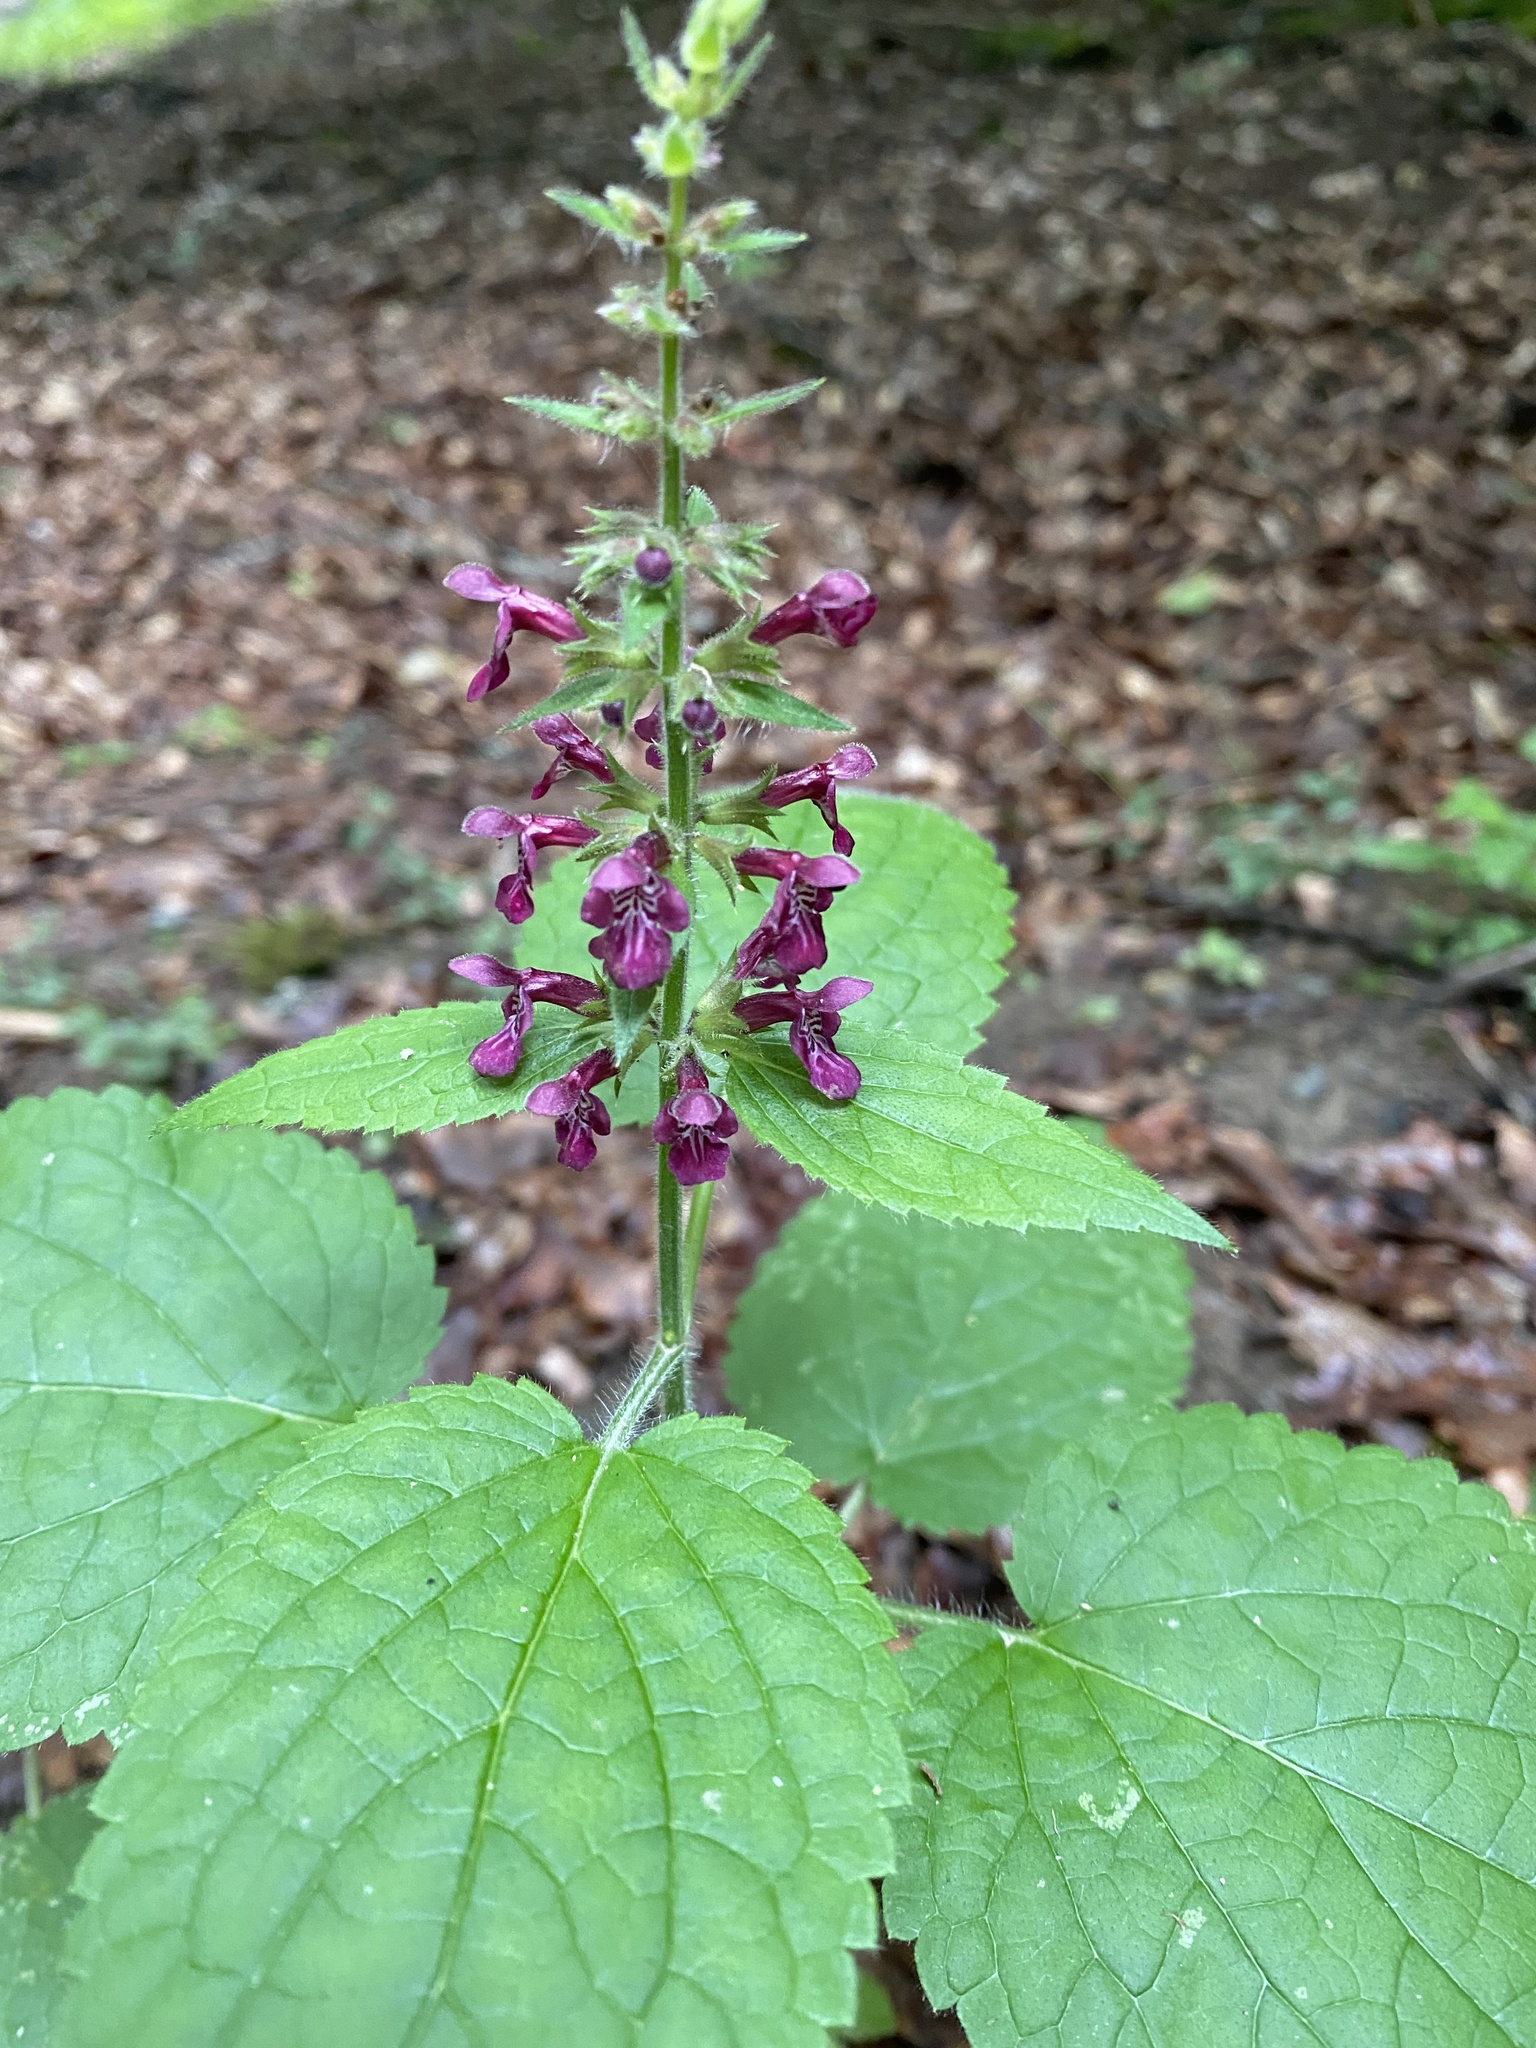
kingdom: Plantae
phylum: Tracheophyta
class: Magnoliopsida
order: Lamiales
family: Lamiaceae
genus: Stachys
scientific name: Stachys sylvatica
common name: Hedge woundwort
